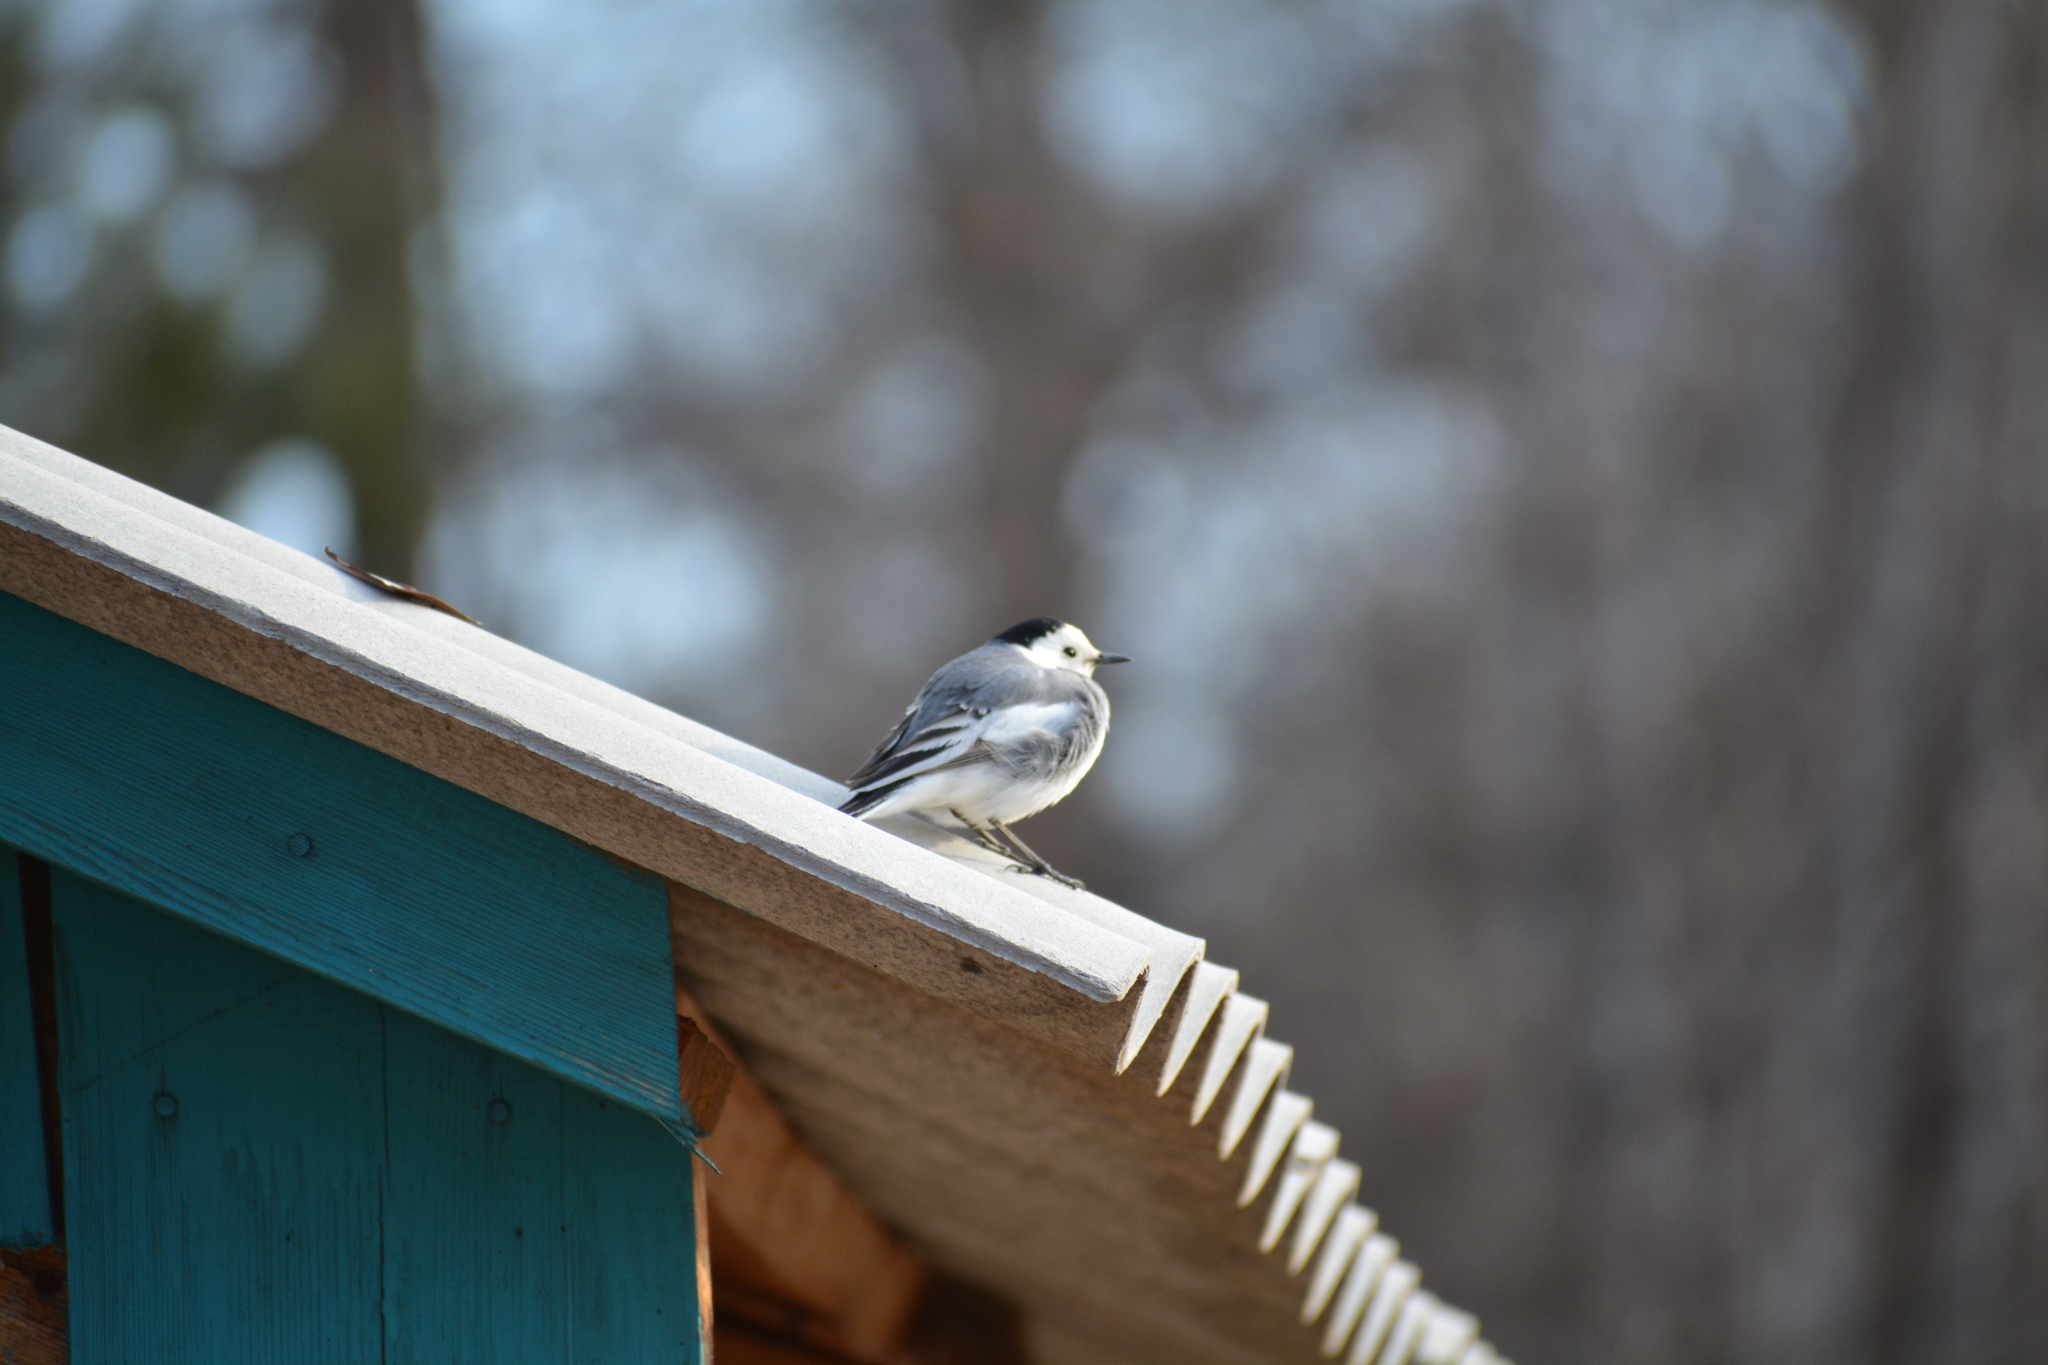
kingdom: Animalia
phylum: Chordata
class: Aves
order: Passeriformes
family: Motacillidae
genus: Motacilla
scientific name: Motacilla alba
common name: White wagtail
